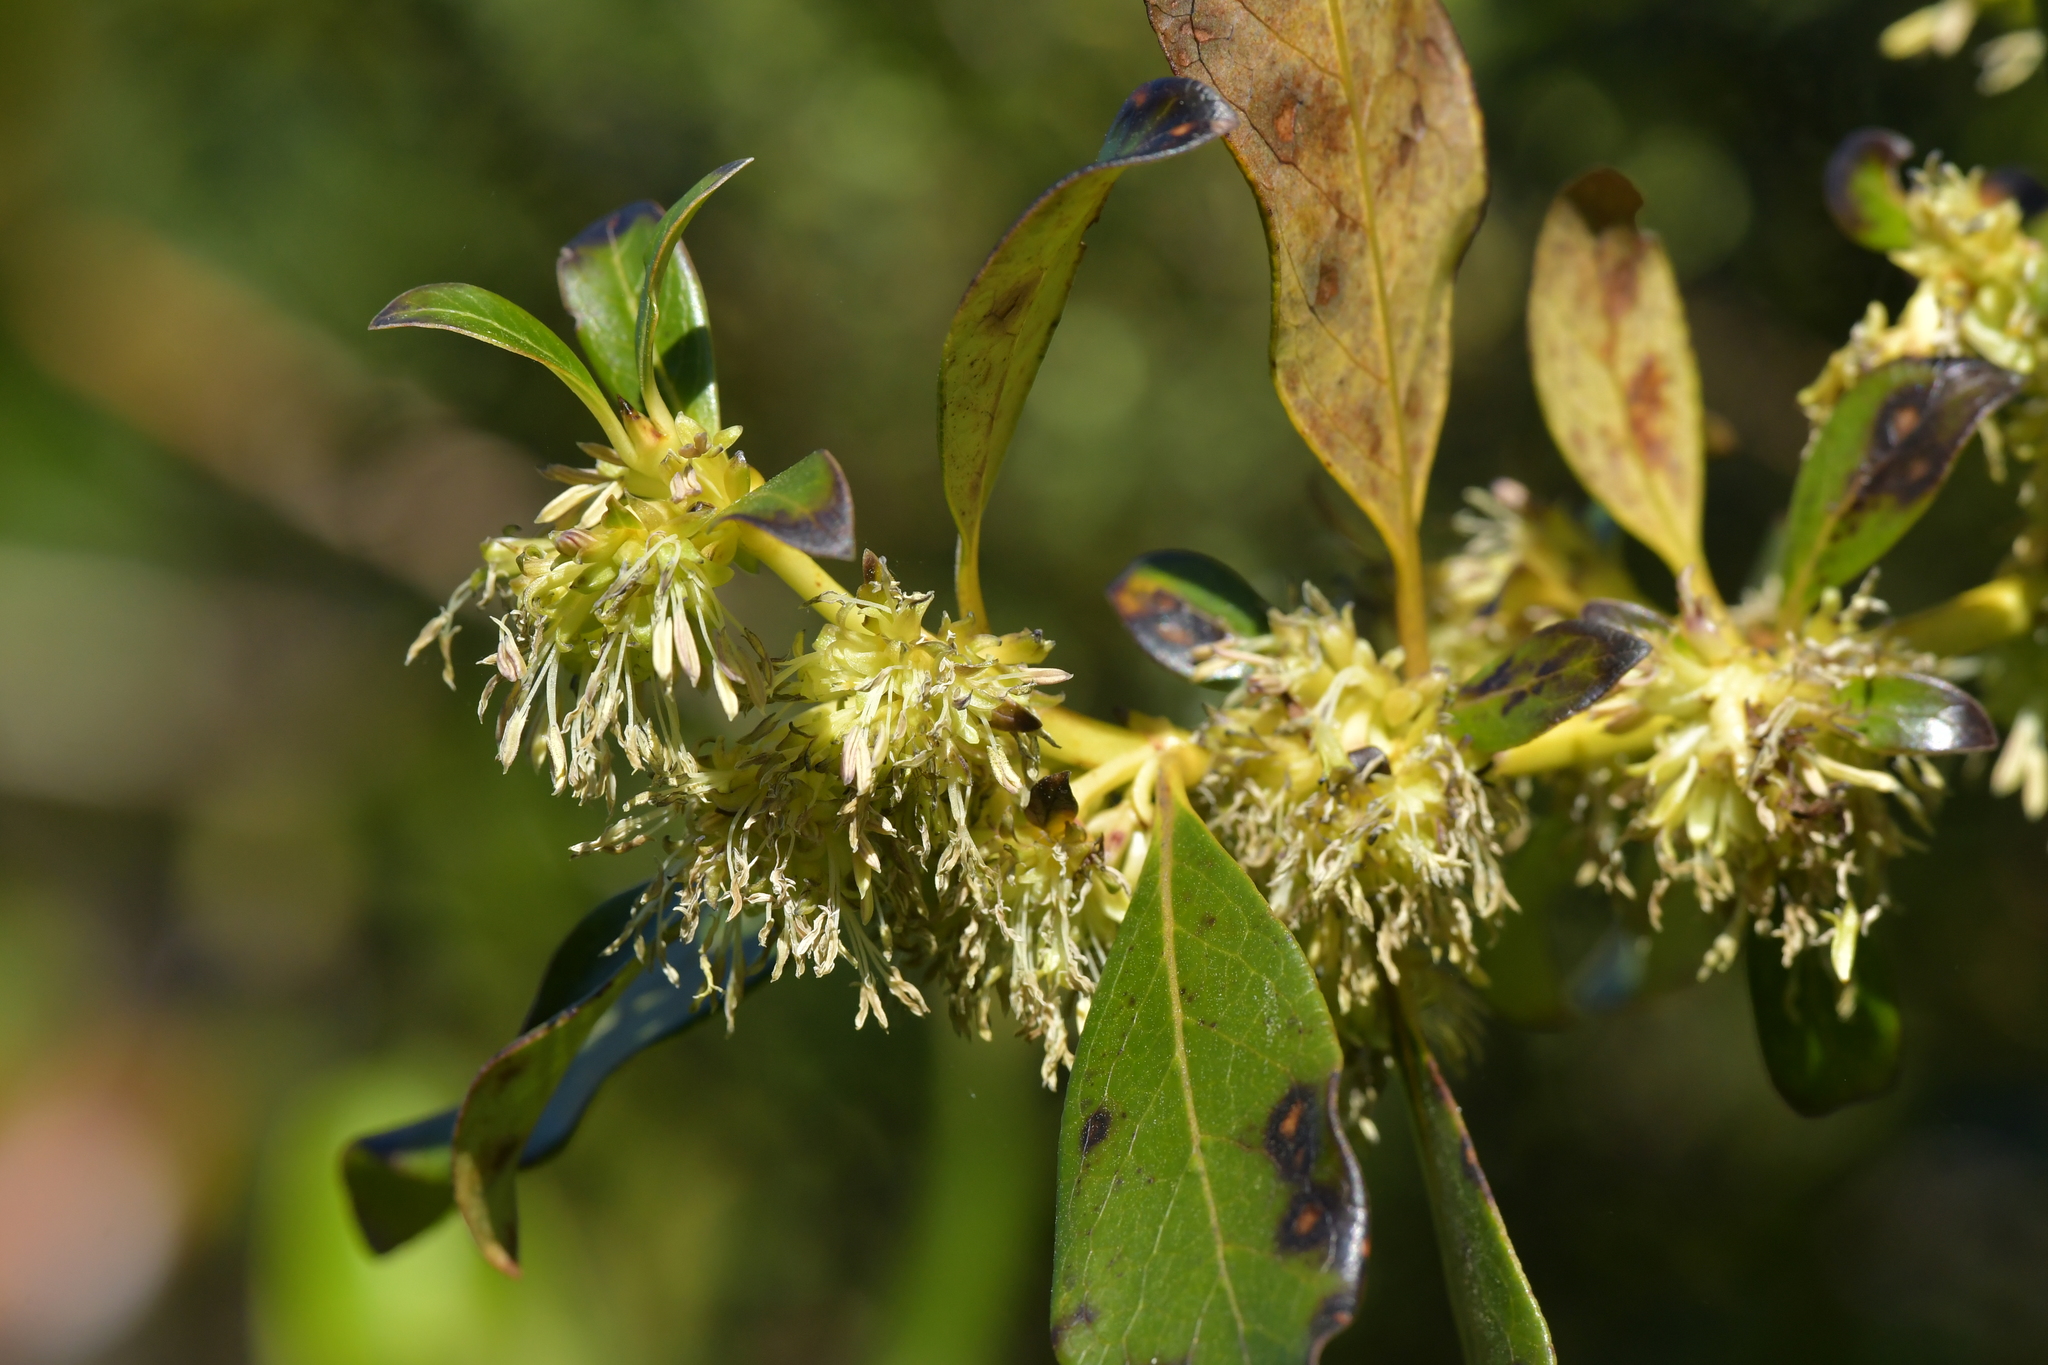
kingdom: Plantae
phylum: Tracheophyta
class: Magnoliopsida
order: Gentianales
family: Rubiaceae
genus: Coprosma
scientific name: Coprosma robusta
